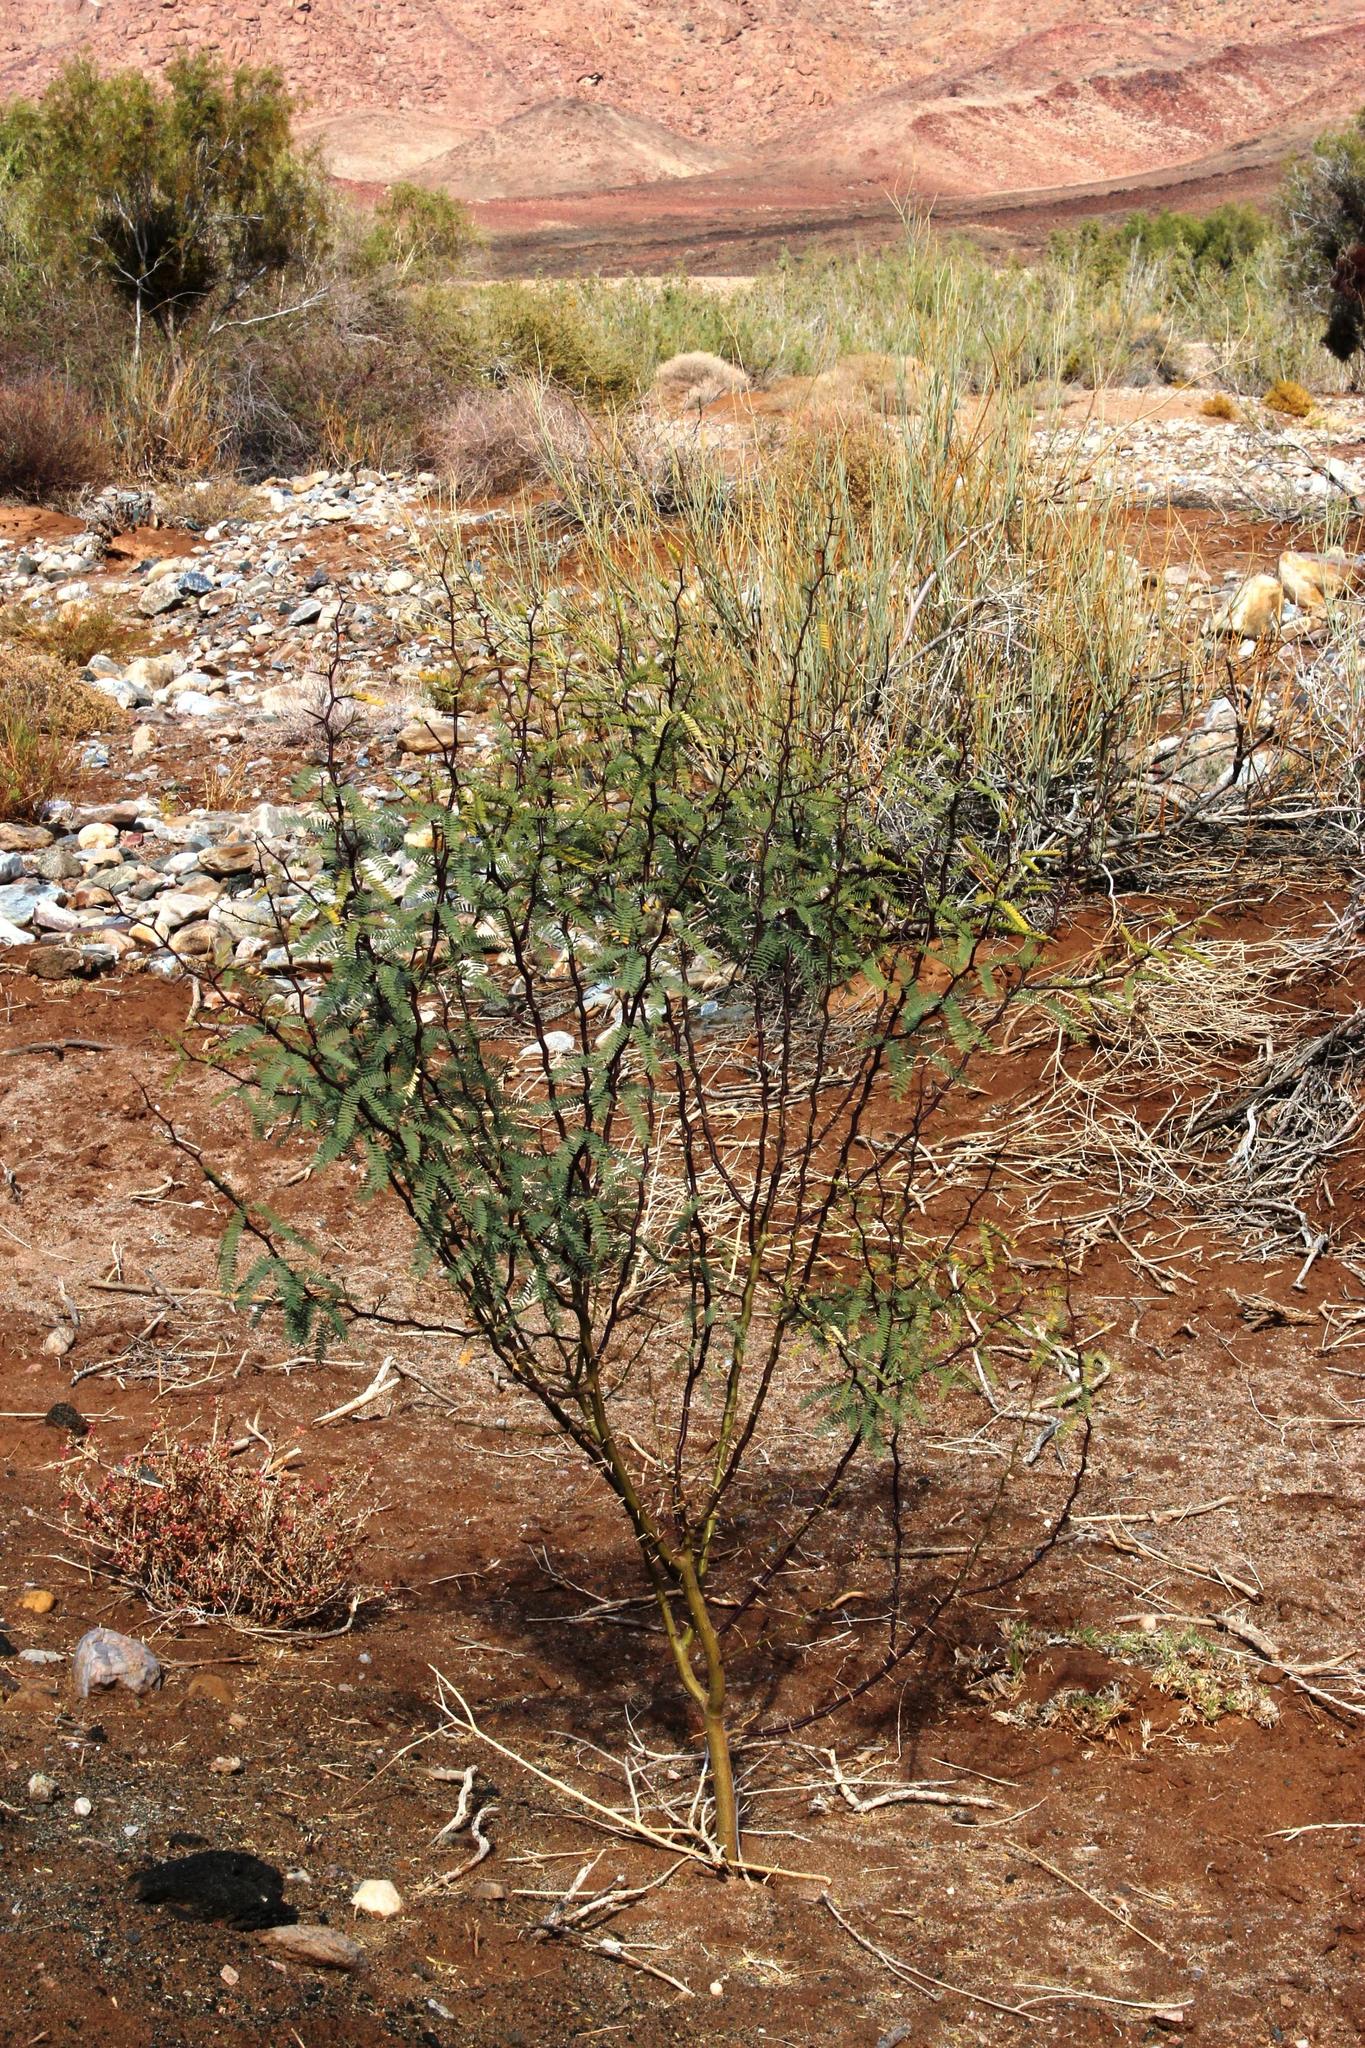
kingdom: Plantae
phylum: Tracheophyta
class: Magnoliopsida
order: Fabales
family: Fabaceae
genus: Prosopis
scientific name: Prosopis glandulosa
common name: Honey mesquite
